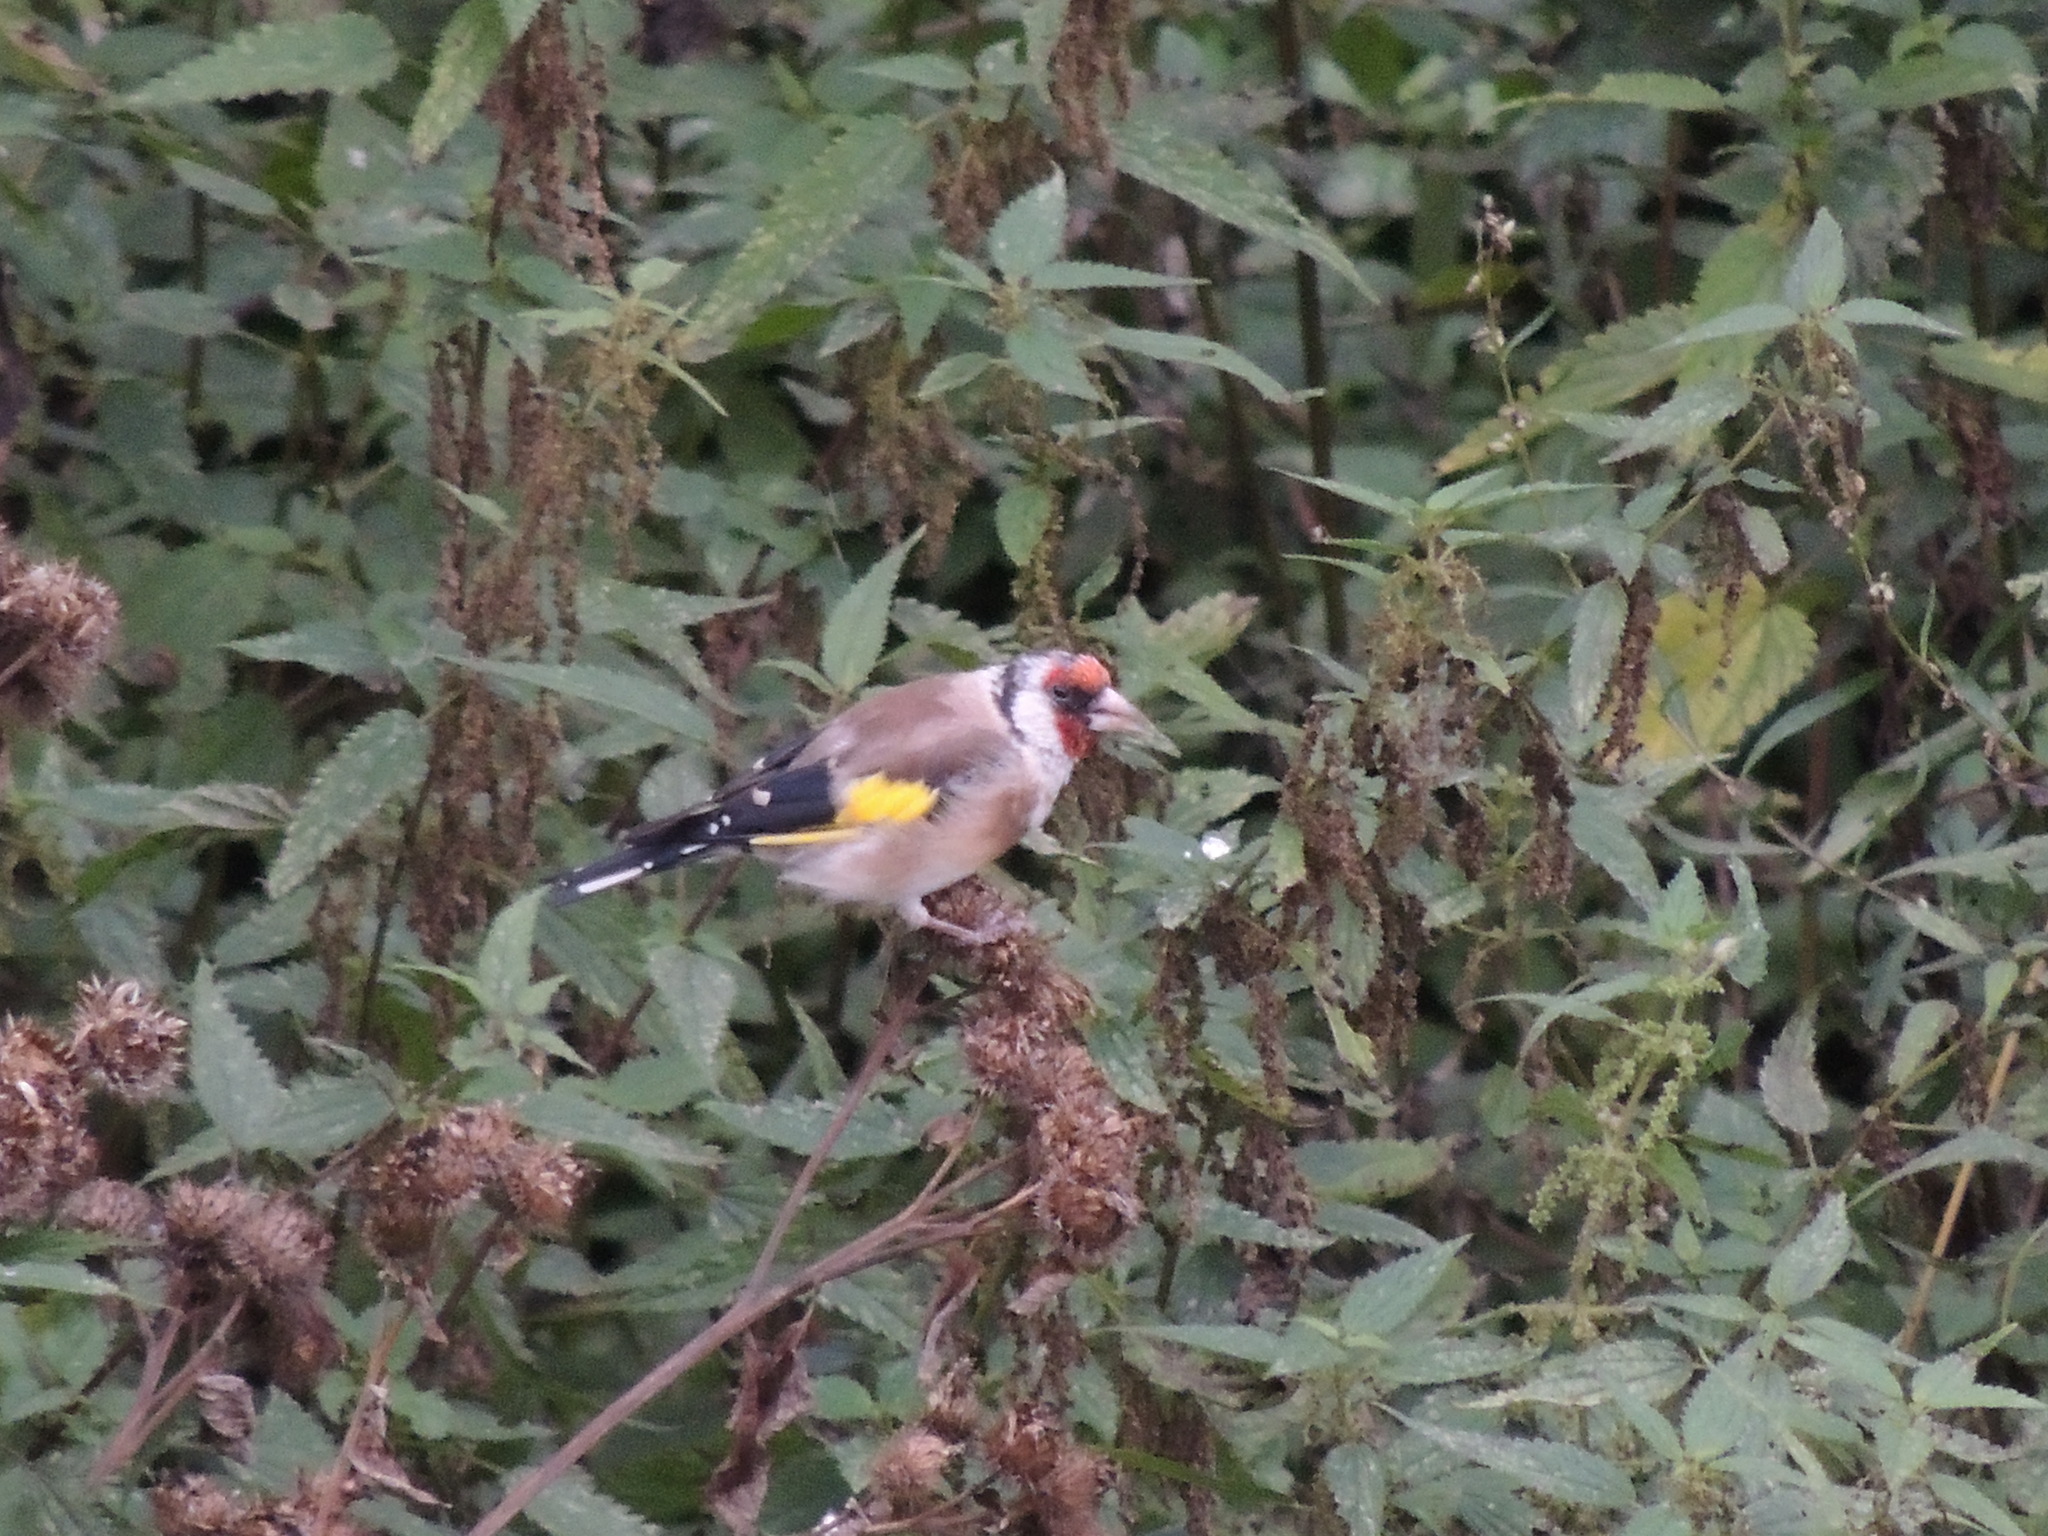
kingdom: Animalia
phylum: Chordata
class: Aves
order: Passeriformes
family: Fringillidae
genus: Carduelis
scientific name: Carduelis carduelis
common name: European goldfinch
